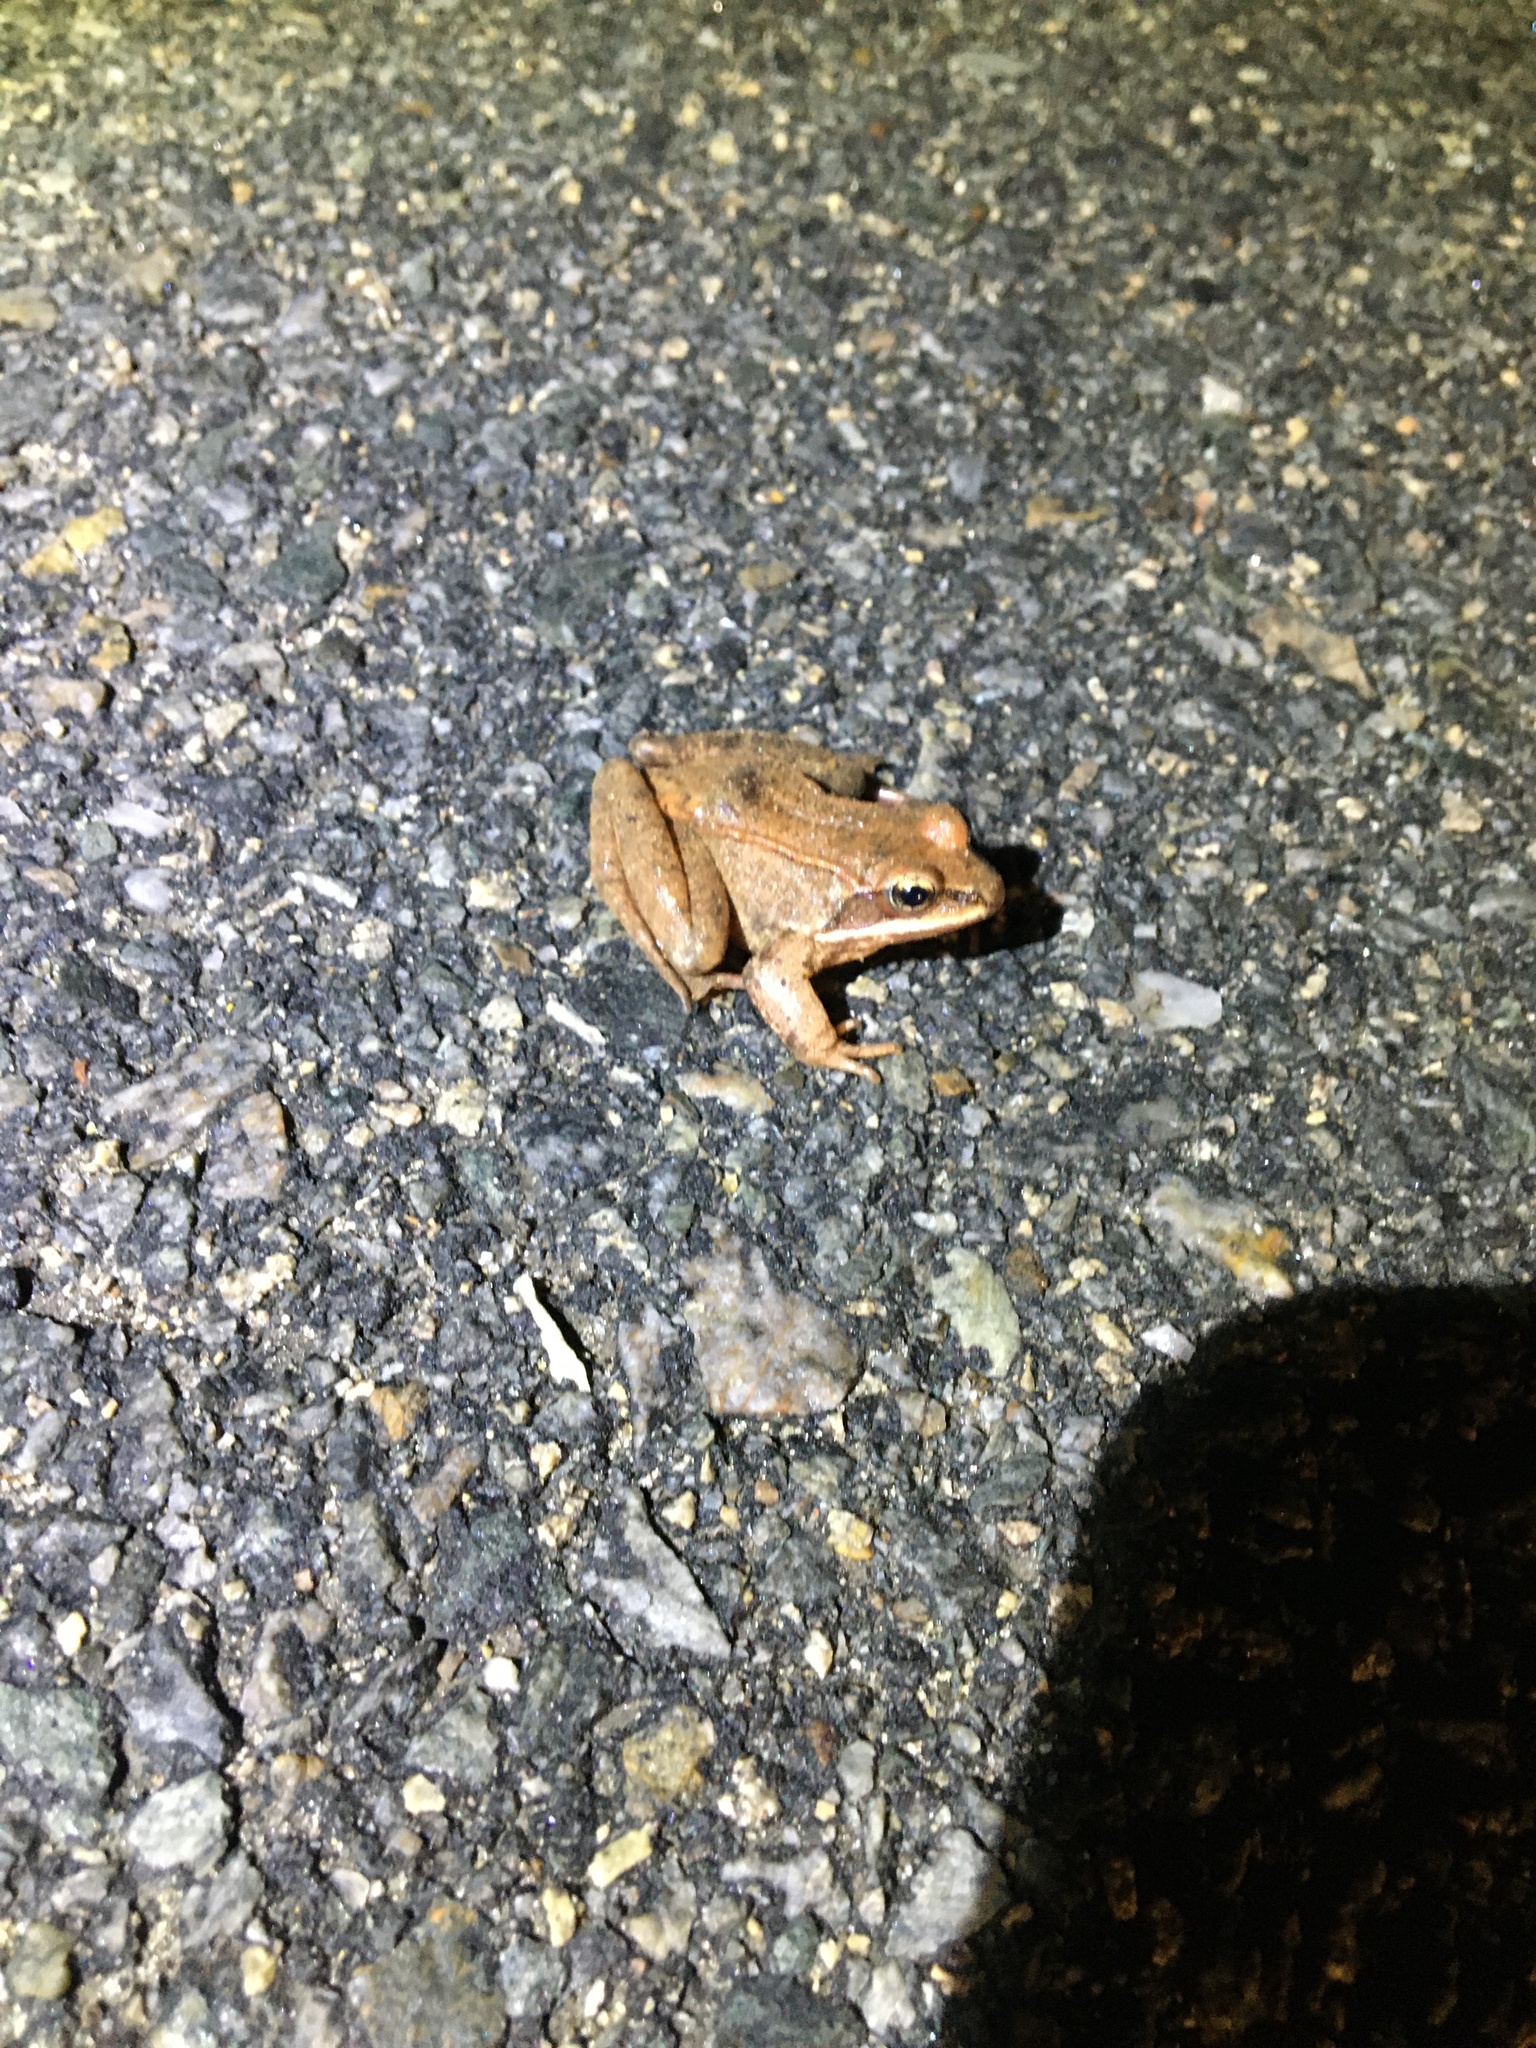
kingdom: Animalia
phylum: Chordata
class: Amphibia
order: Anura
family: Ranidae
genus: Lithobates
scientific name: Lithobates sylvaticus
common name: Wood frog
